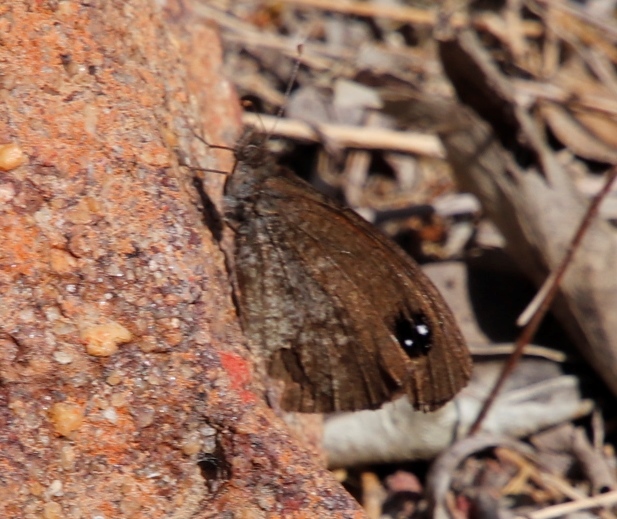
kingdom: Animalia
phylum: Arthropoda
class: Insecta
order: Lepidoptera
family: Nymphalidae
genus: Stygionympha
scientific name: Stygionympha vansoni
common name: Van son's hillside brown
